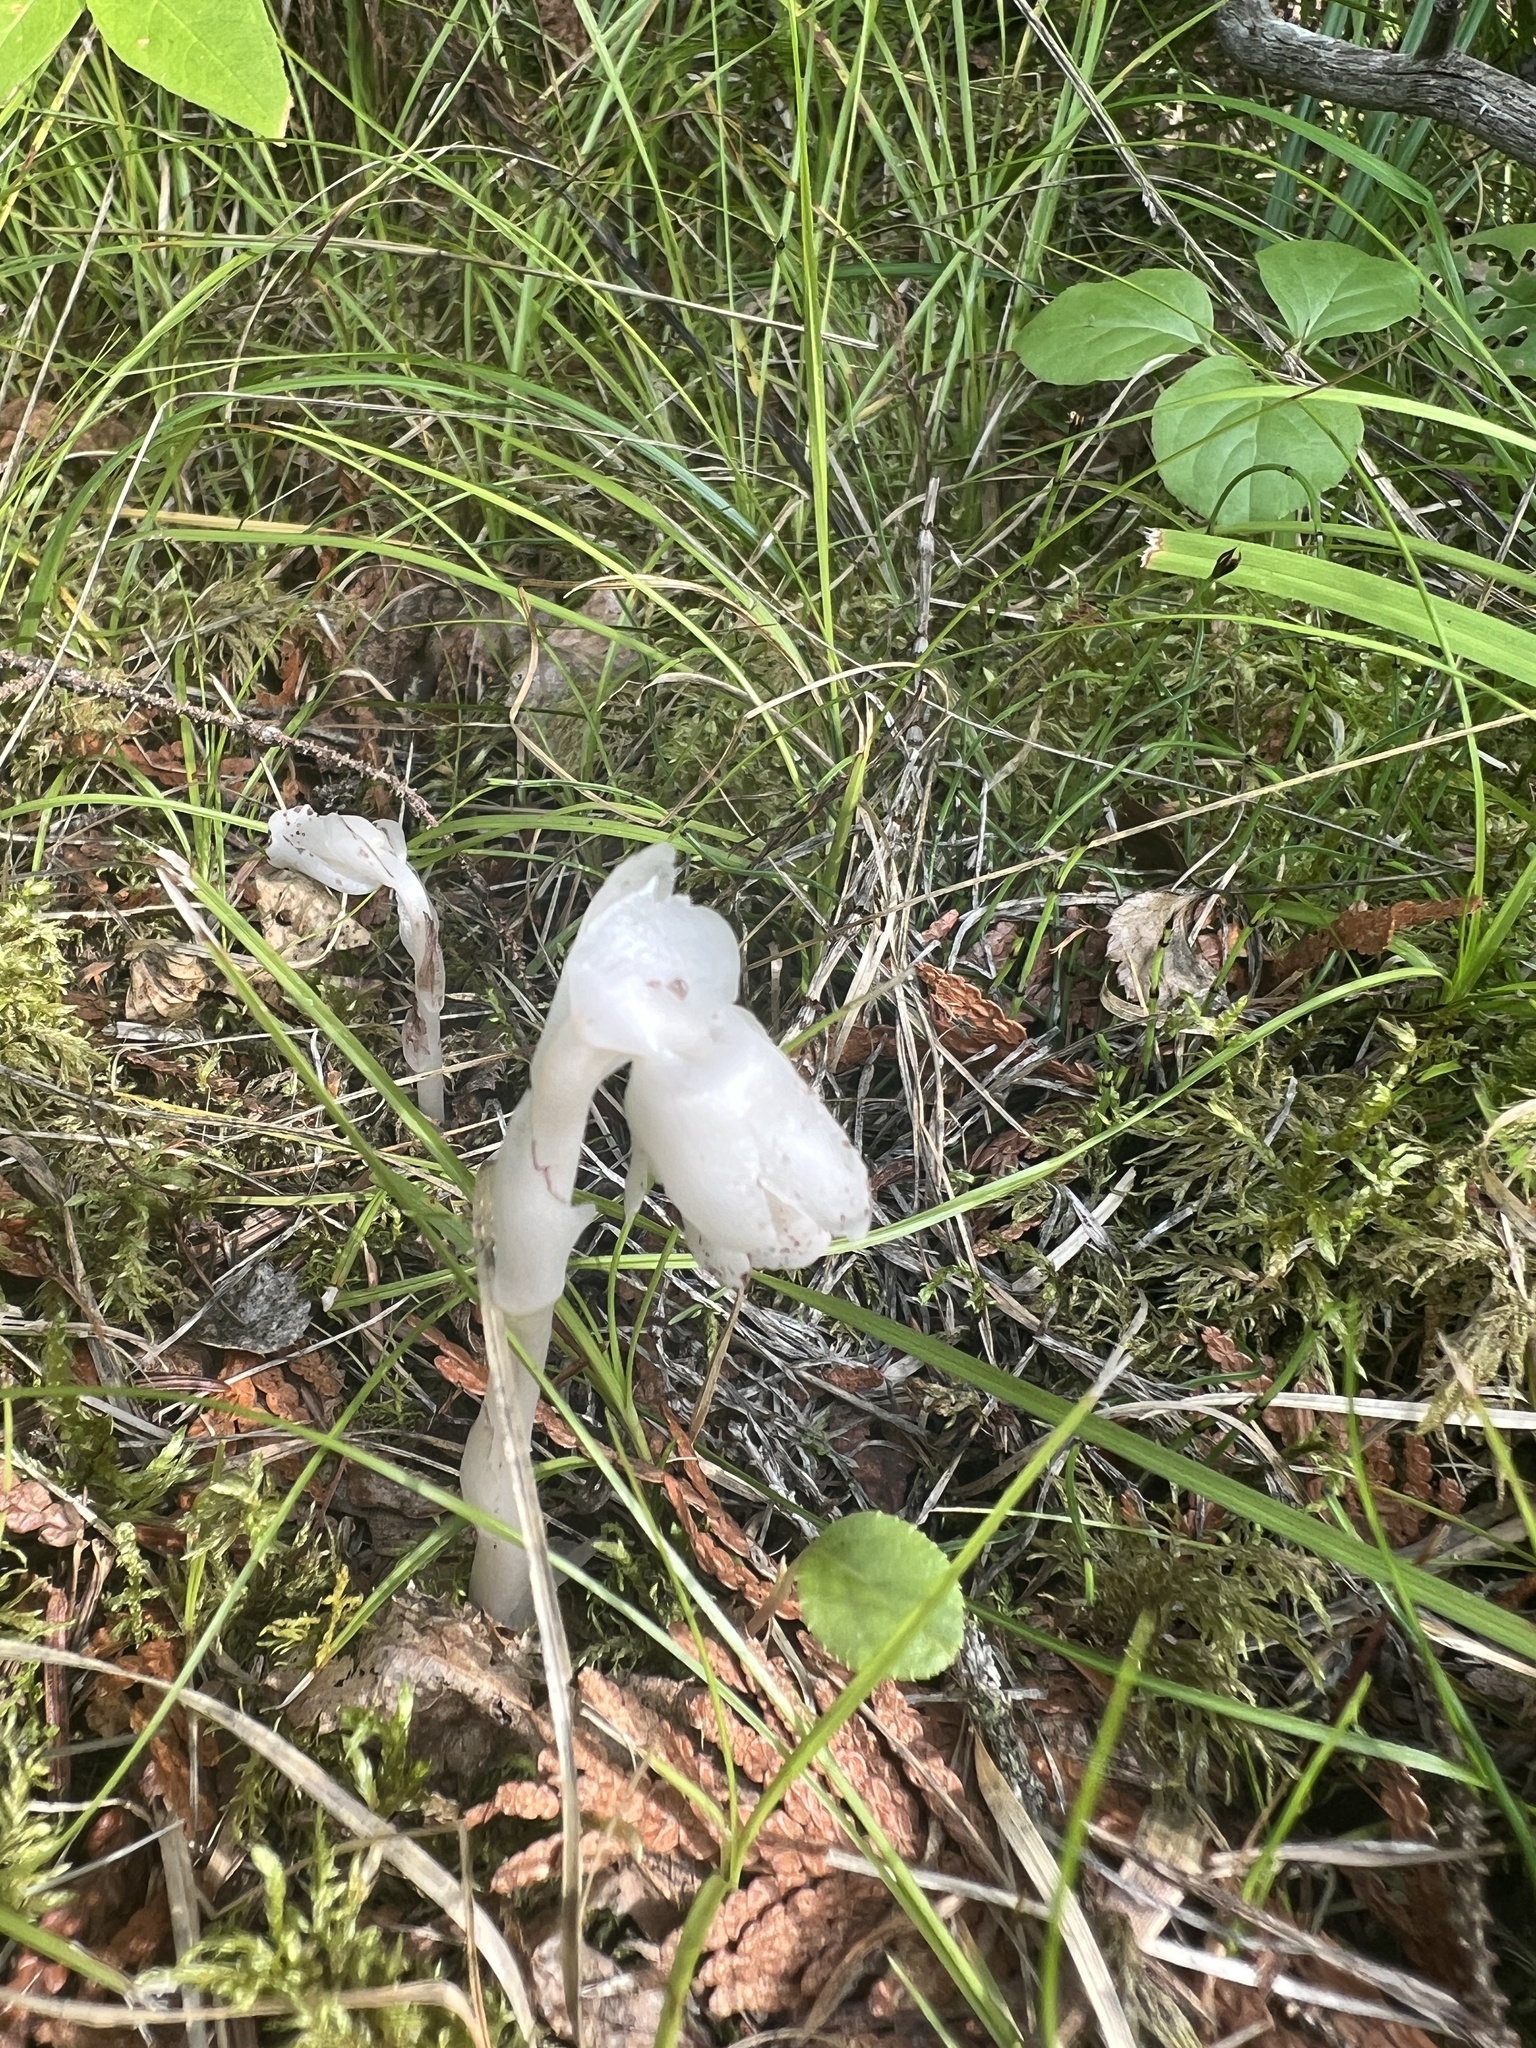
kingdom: Plantae
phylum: Tracheophyta
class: Magnoliopsida
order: Ericales
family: Ericaceae
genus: Monotropa
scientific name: Monotropa uniflora
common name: Convulsion root
